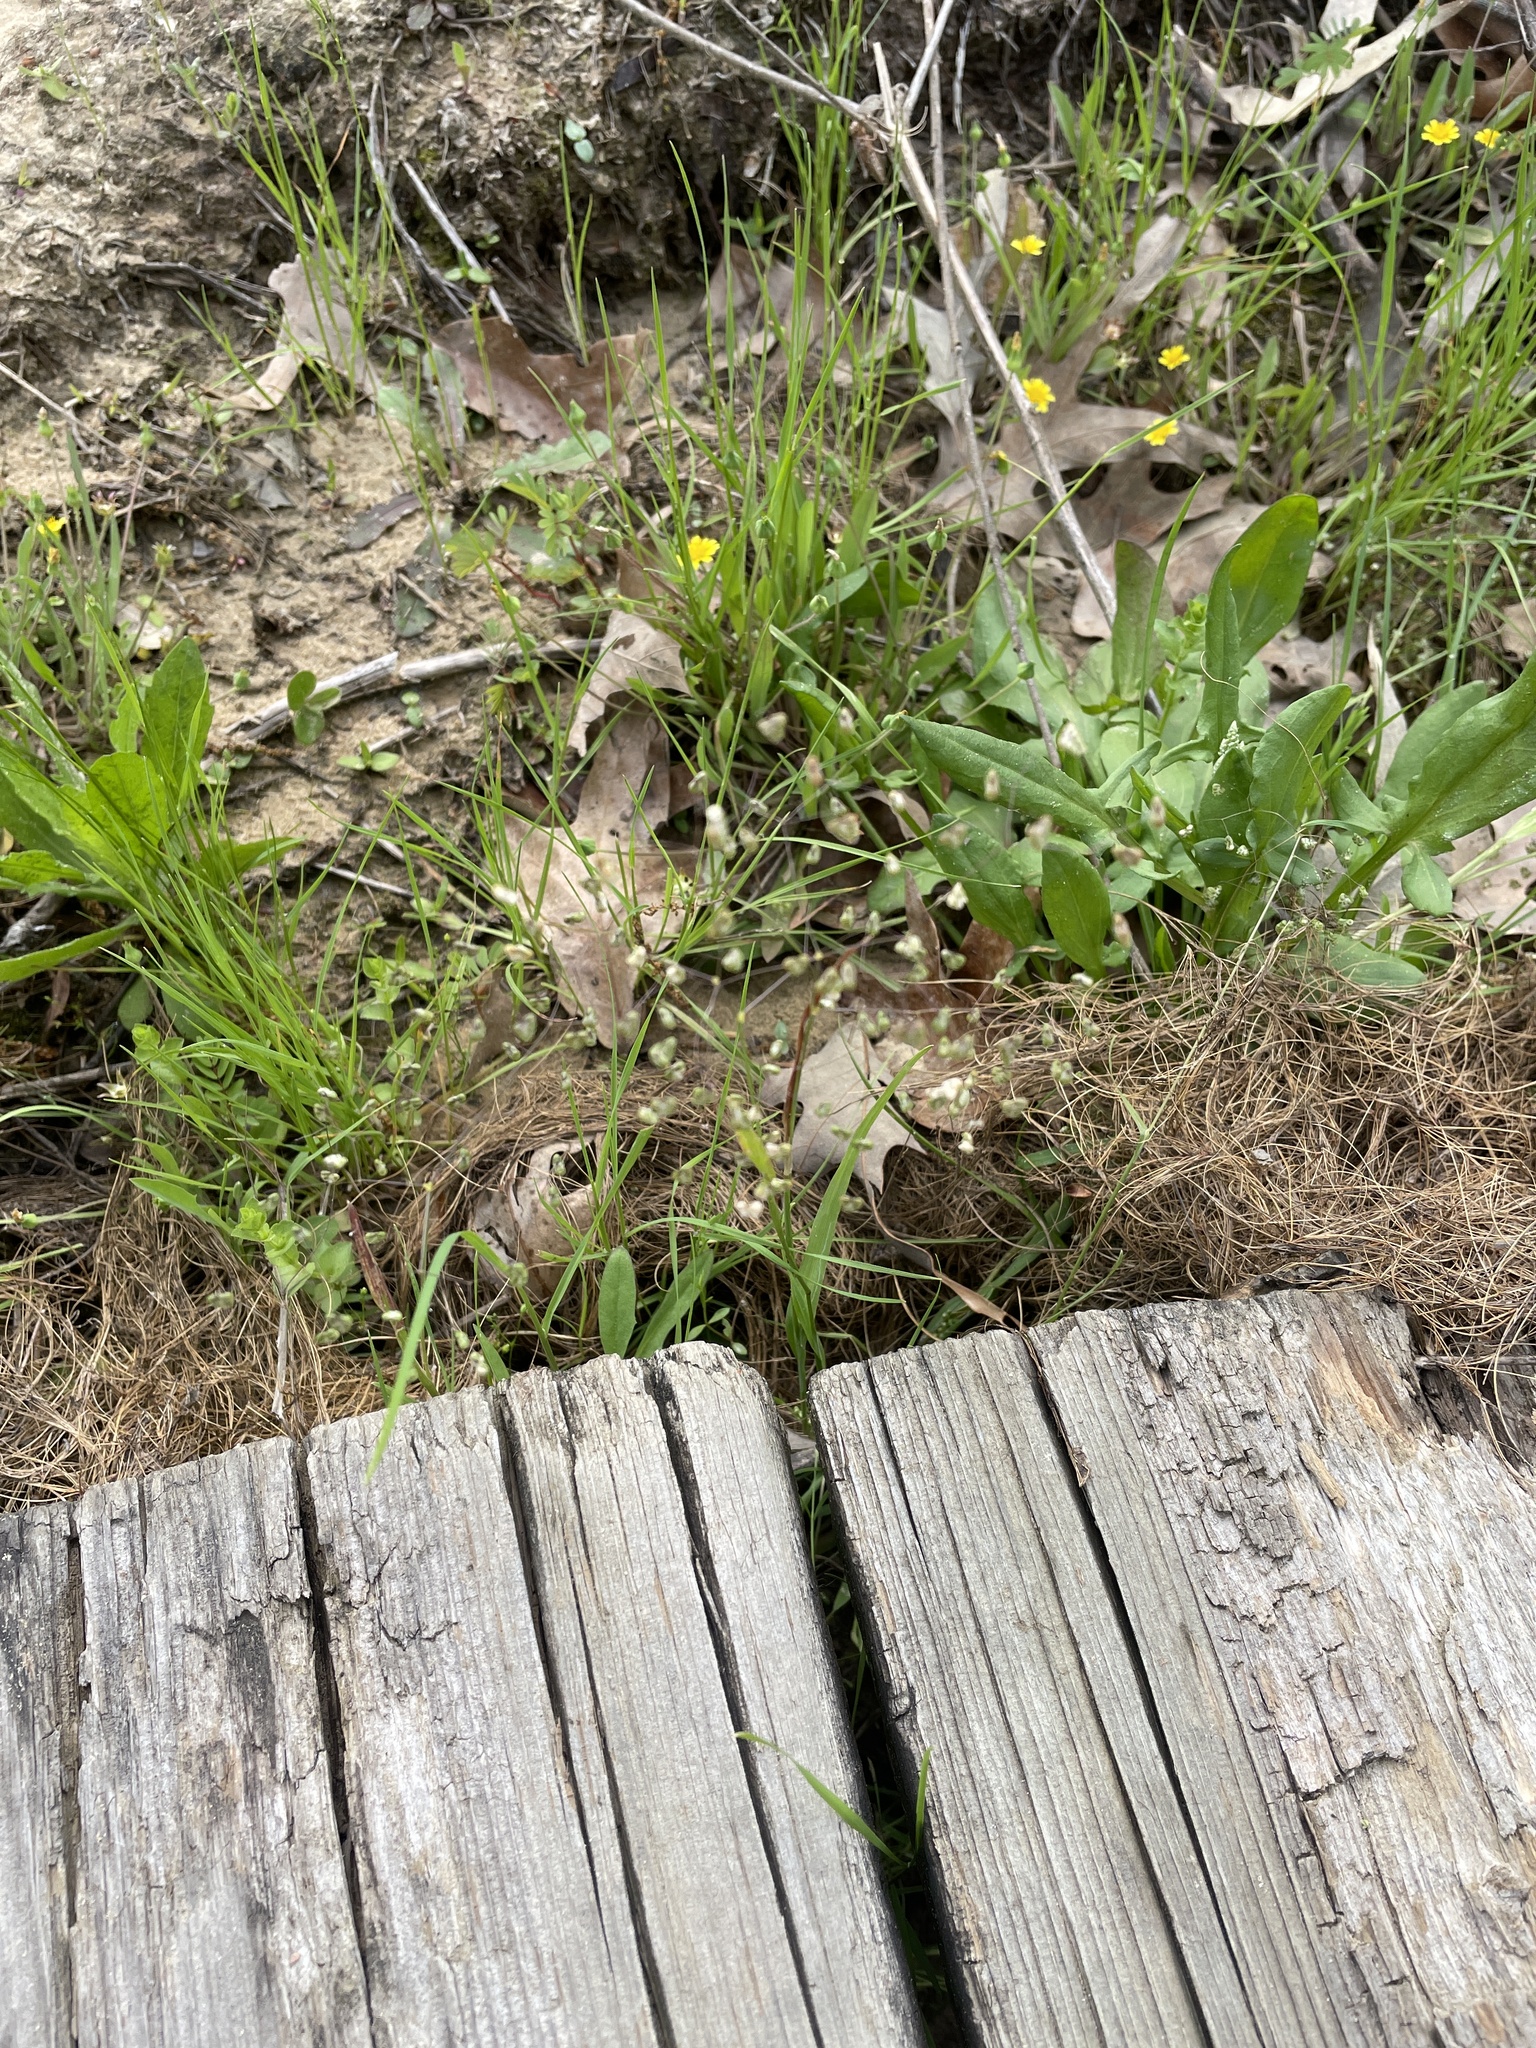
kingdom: Plantae
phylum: Tracheophyta
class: Liliopsida
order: Poales
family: Poaceae
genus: Briza
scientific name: Briza minor
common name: Lesser quaking-grass
